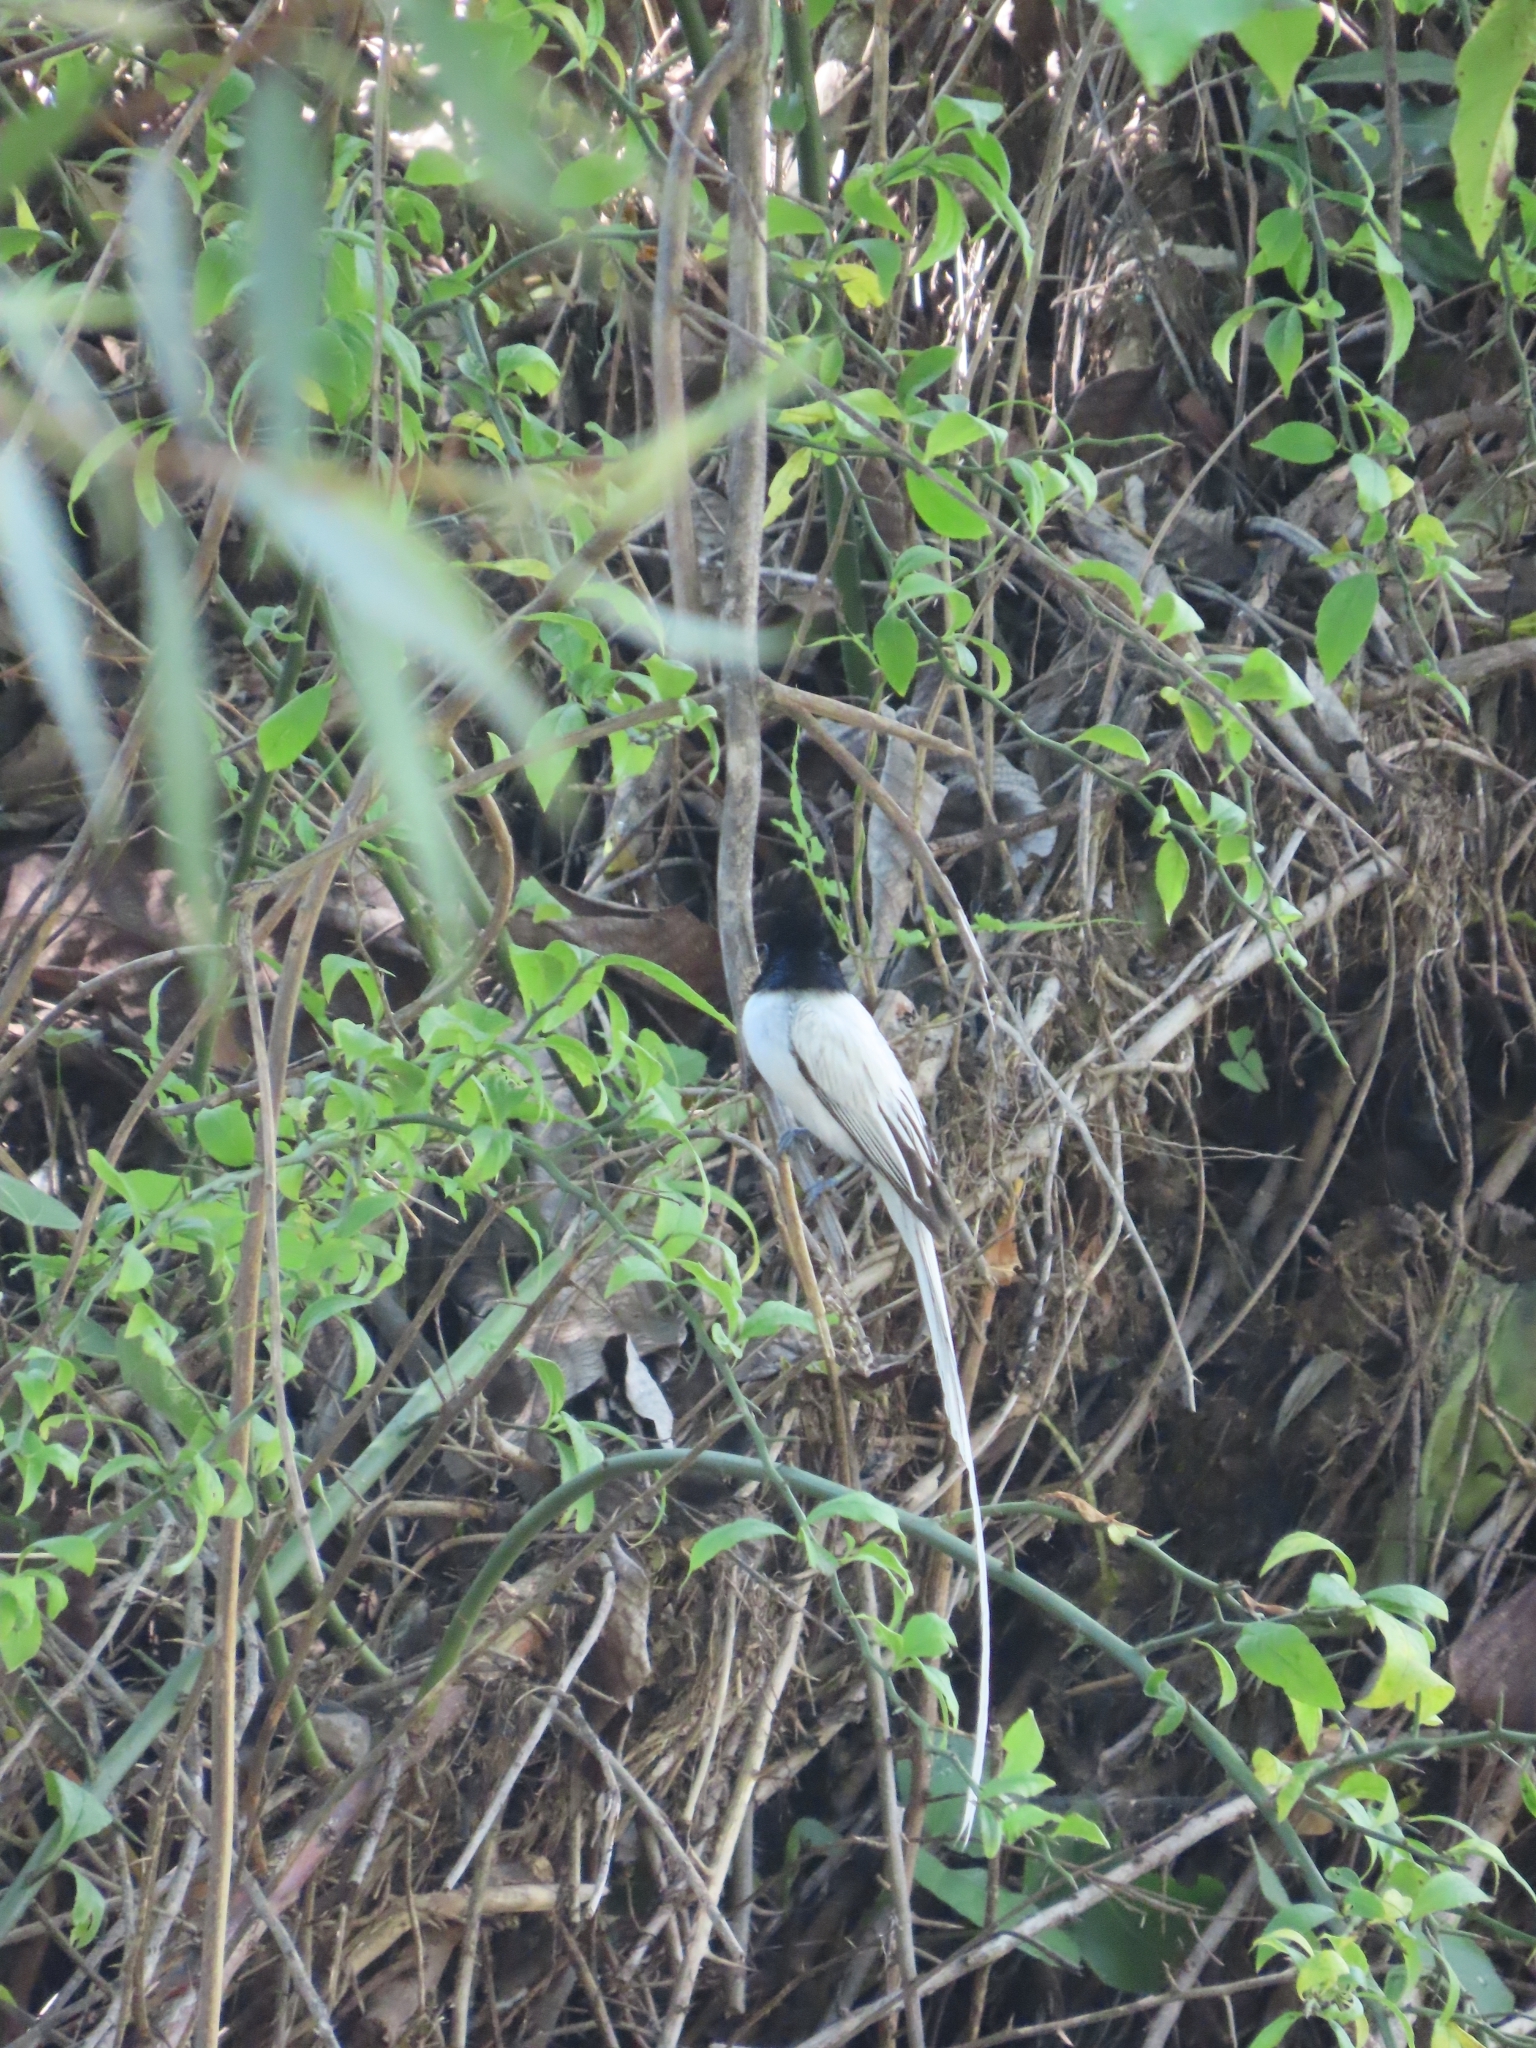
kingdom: Animalia
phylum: Chordata
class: Aves
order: Passeriformes
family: Monarchidae
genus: Terpsiphone
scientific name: Terpsiphone paradisi
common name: Indian paradise flycatcher
